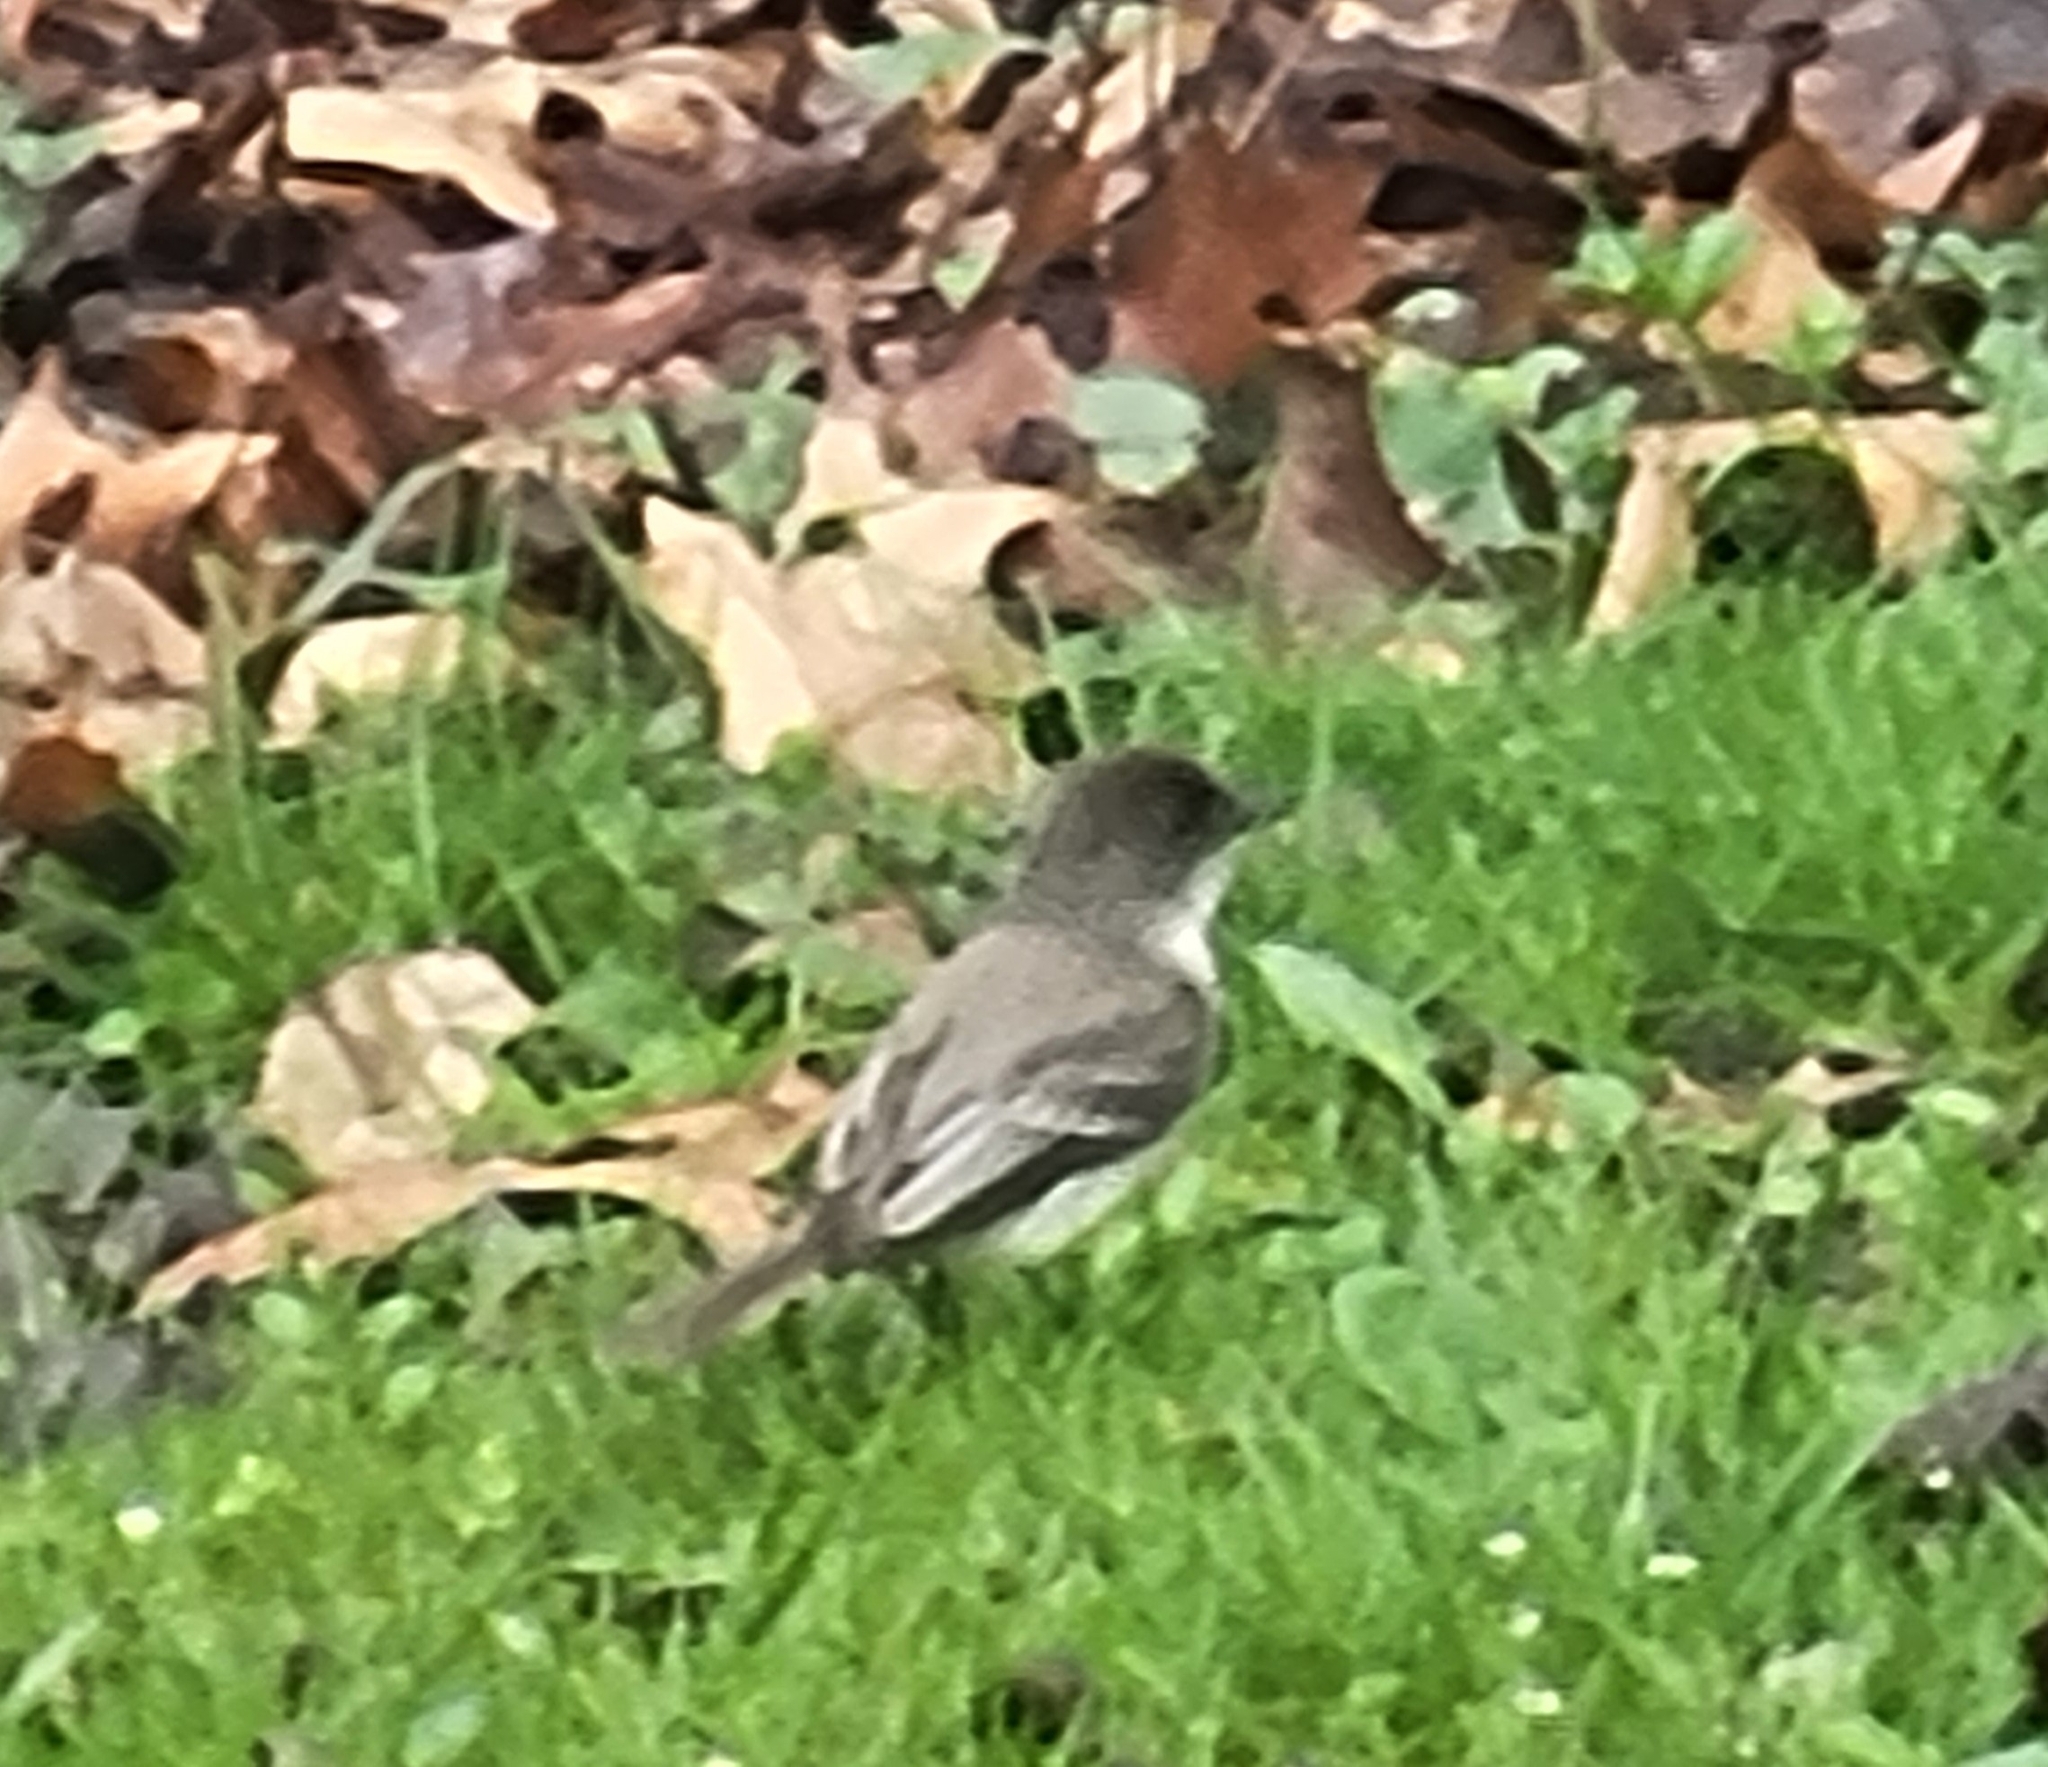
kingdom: Animalia
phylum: Chordata
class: Aves
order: Passeriformes
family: Tyrannidae
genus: Sayornis
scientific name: Sayornis phoebe
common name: Eastern phoebe
